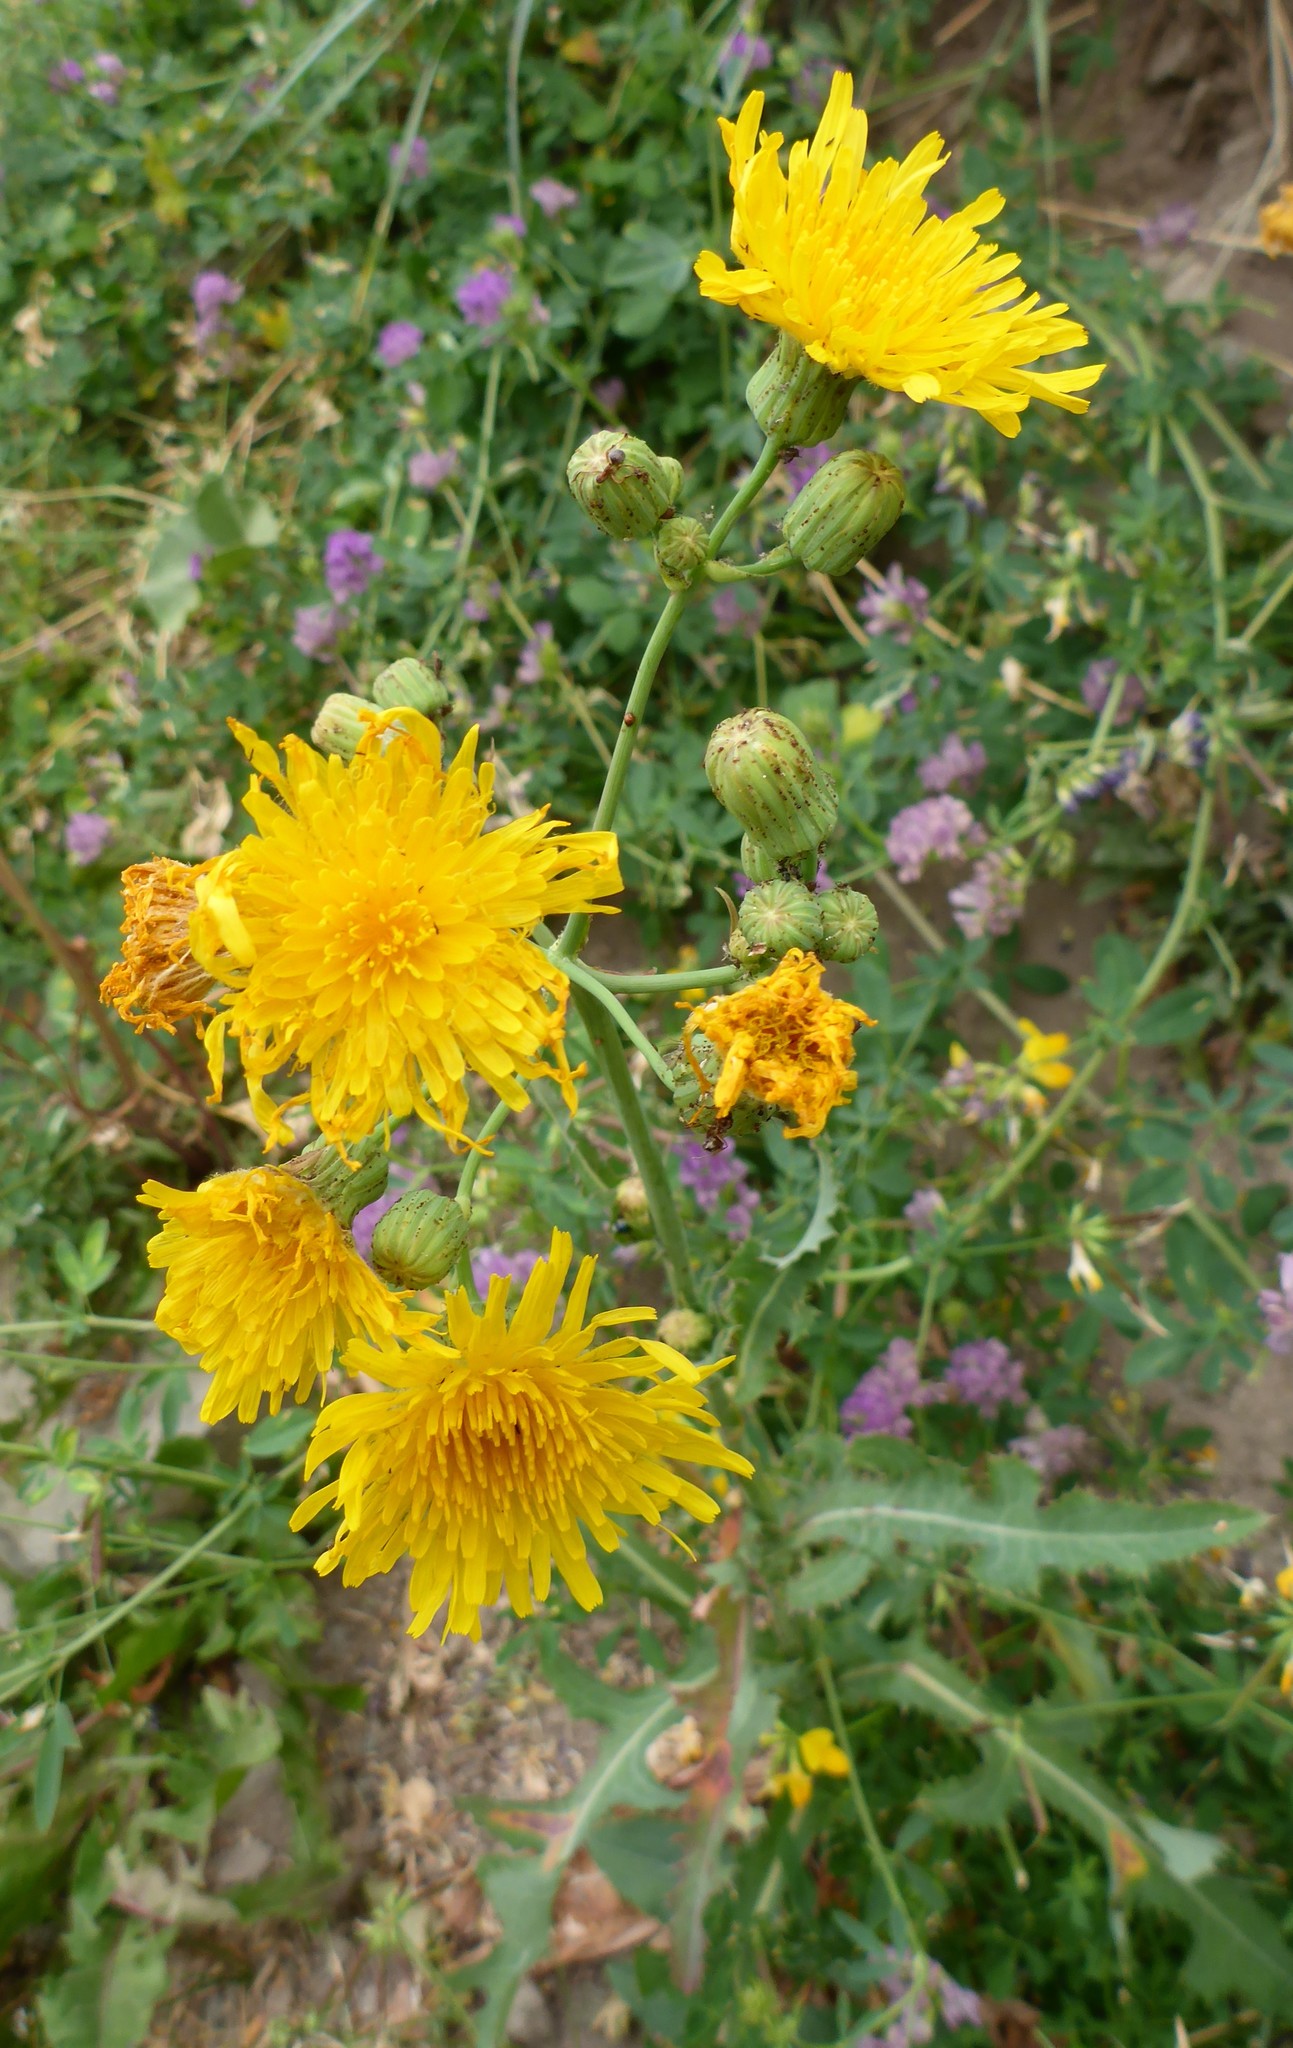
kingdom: Plantae
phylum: Tracheophyta
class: Magnoliopsida
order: Asterales
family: Asteraceae
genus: Sonchus
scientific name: Sonchus arvensis
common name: Perennial sow-thistle
